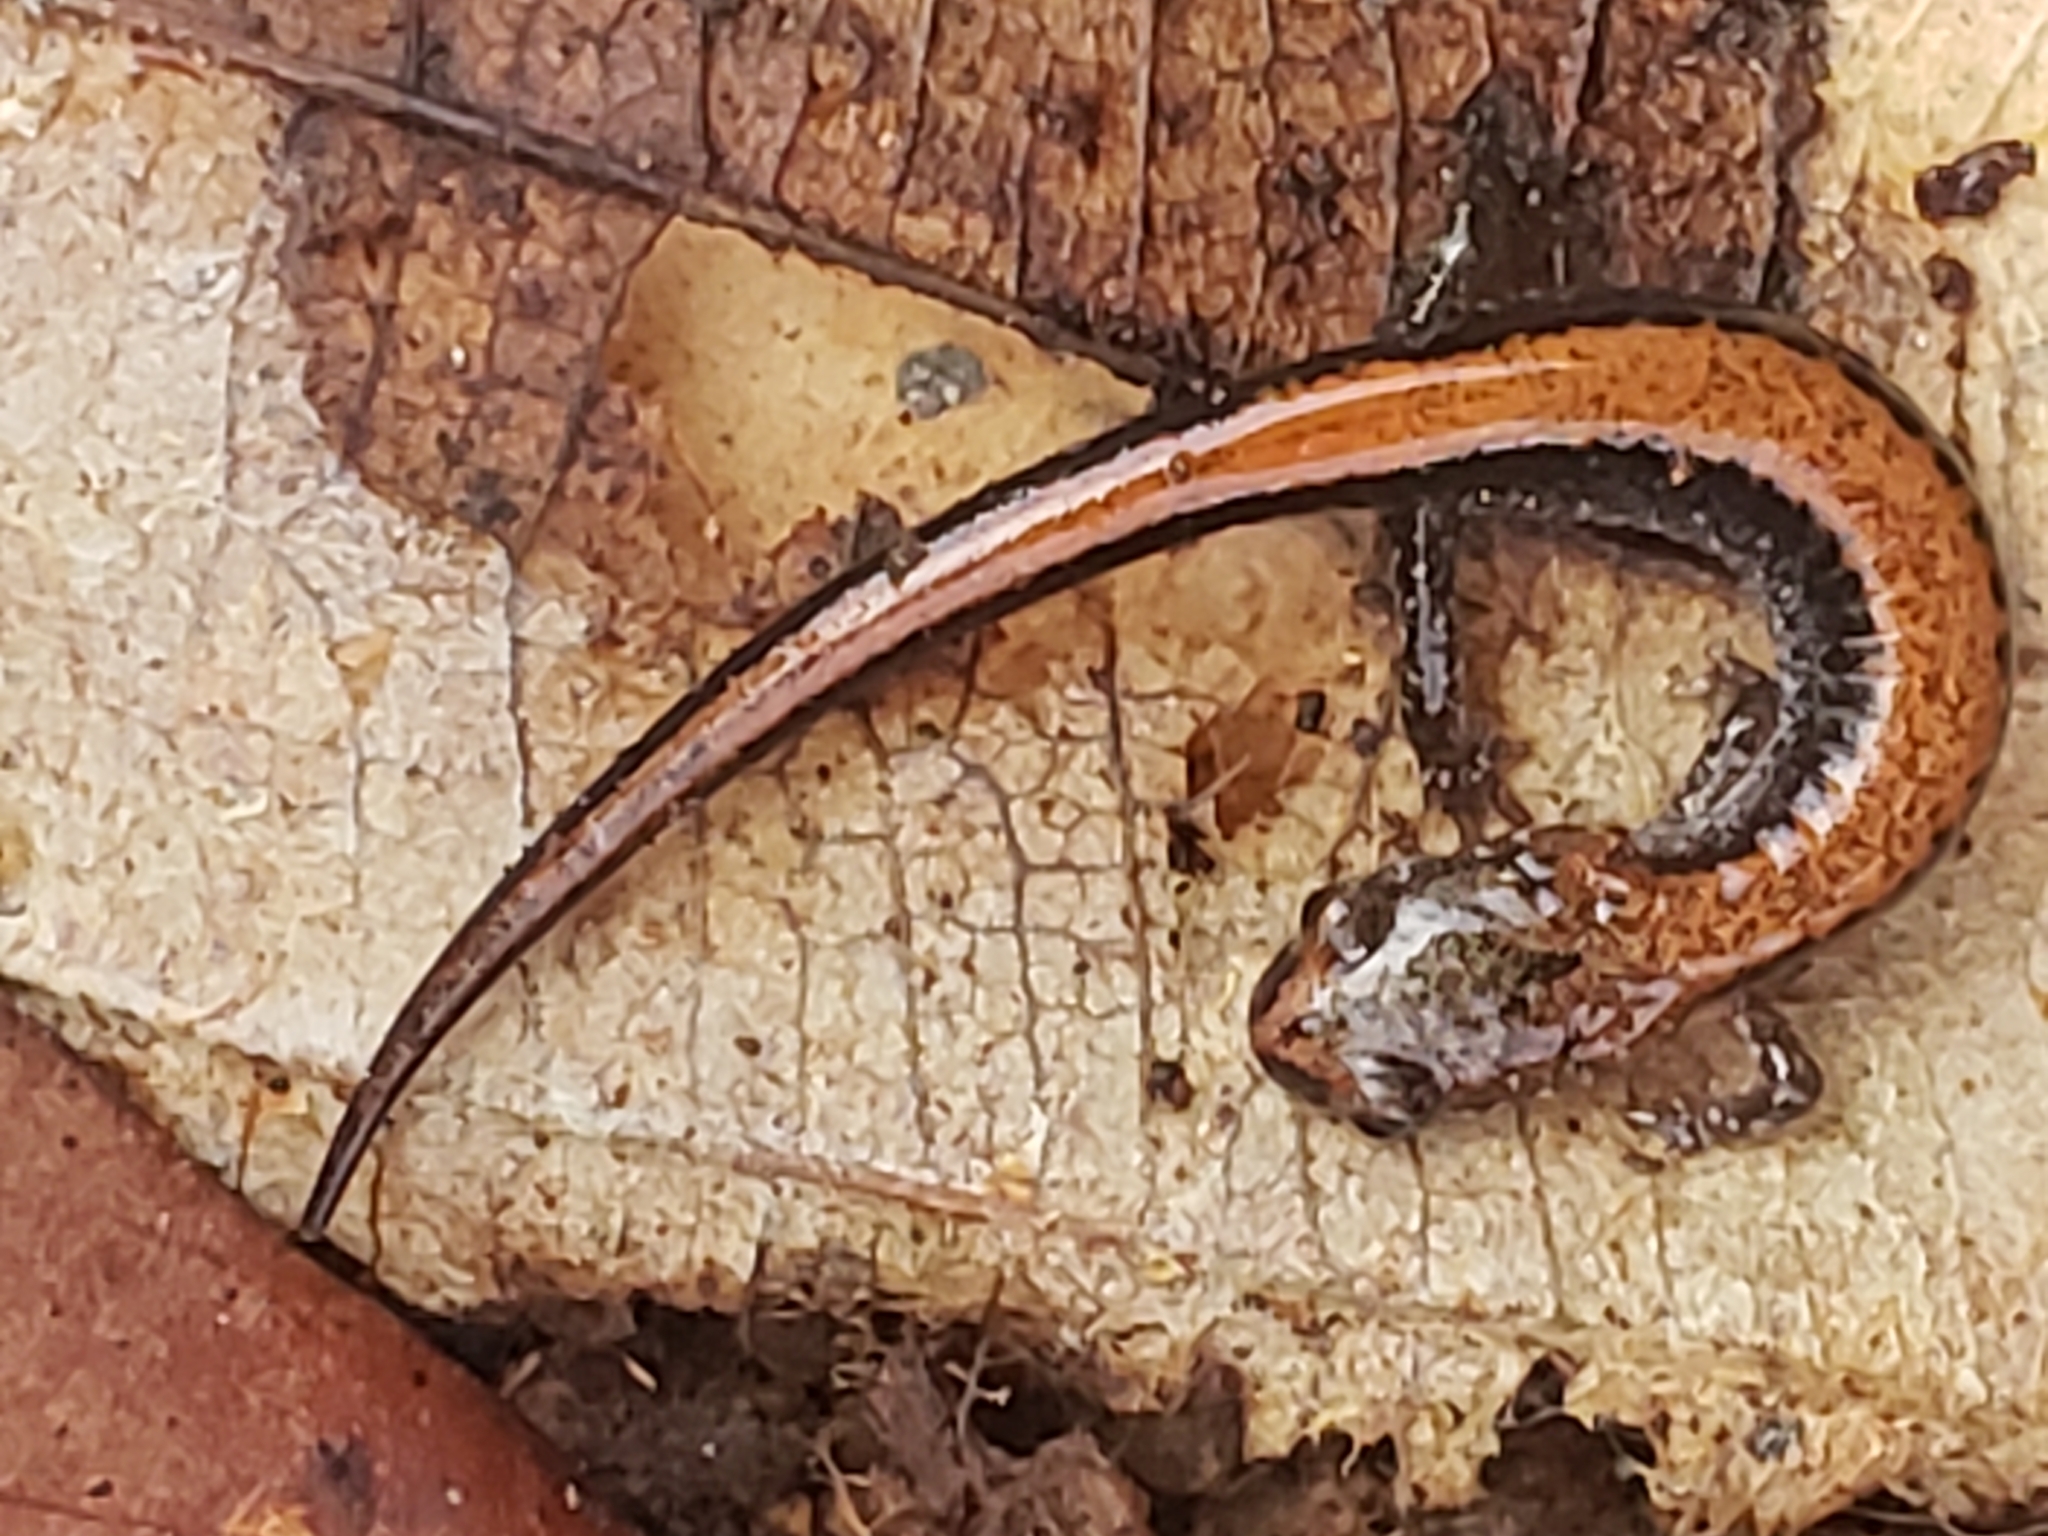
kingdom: Animalia
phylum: Chordata
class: Amphibia
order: Caudata
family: Plethodontidae
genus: Plethodon
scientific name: Plethodon cinereus
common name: Redback salamander
